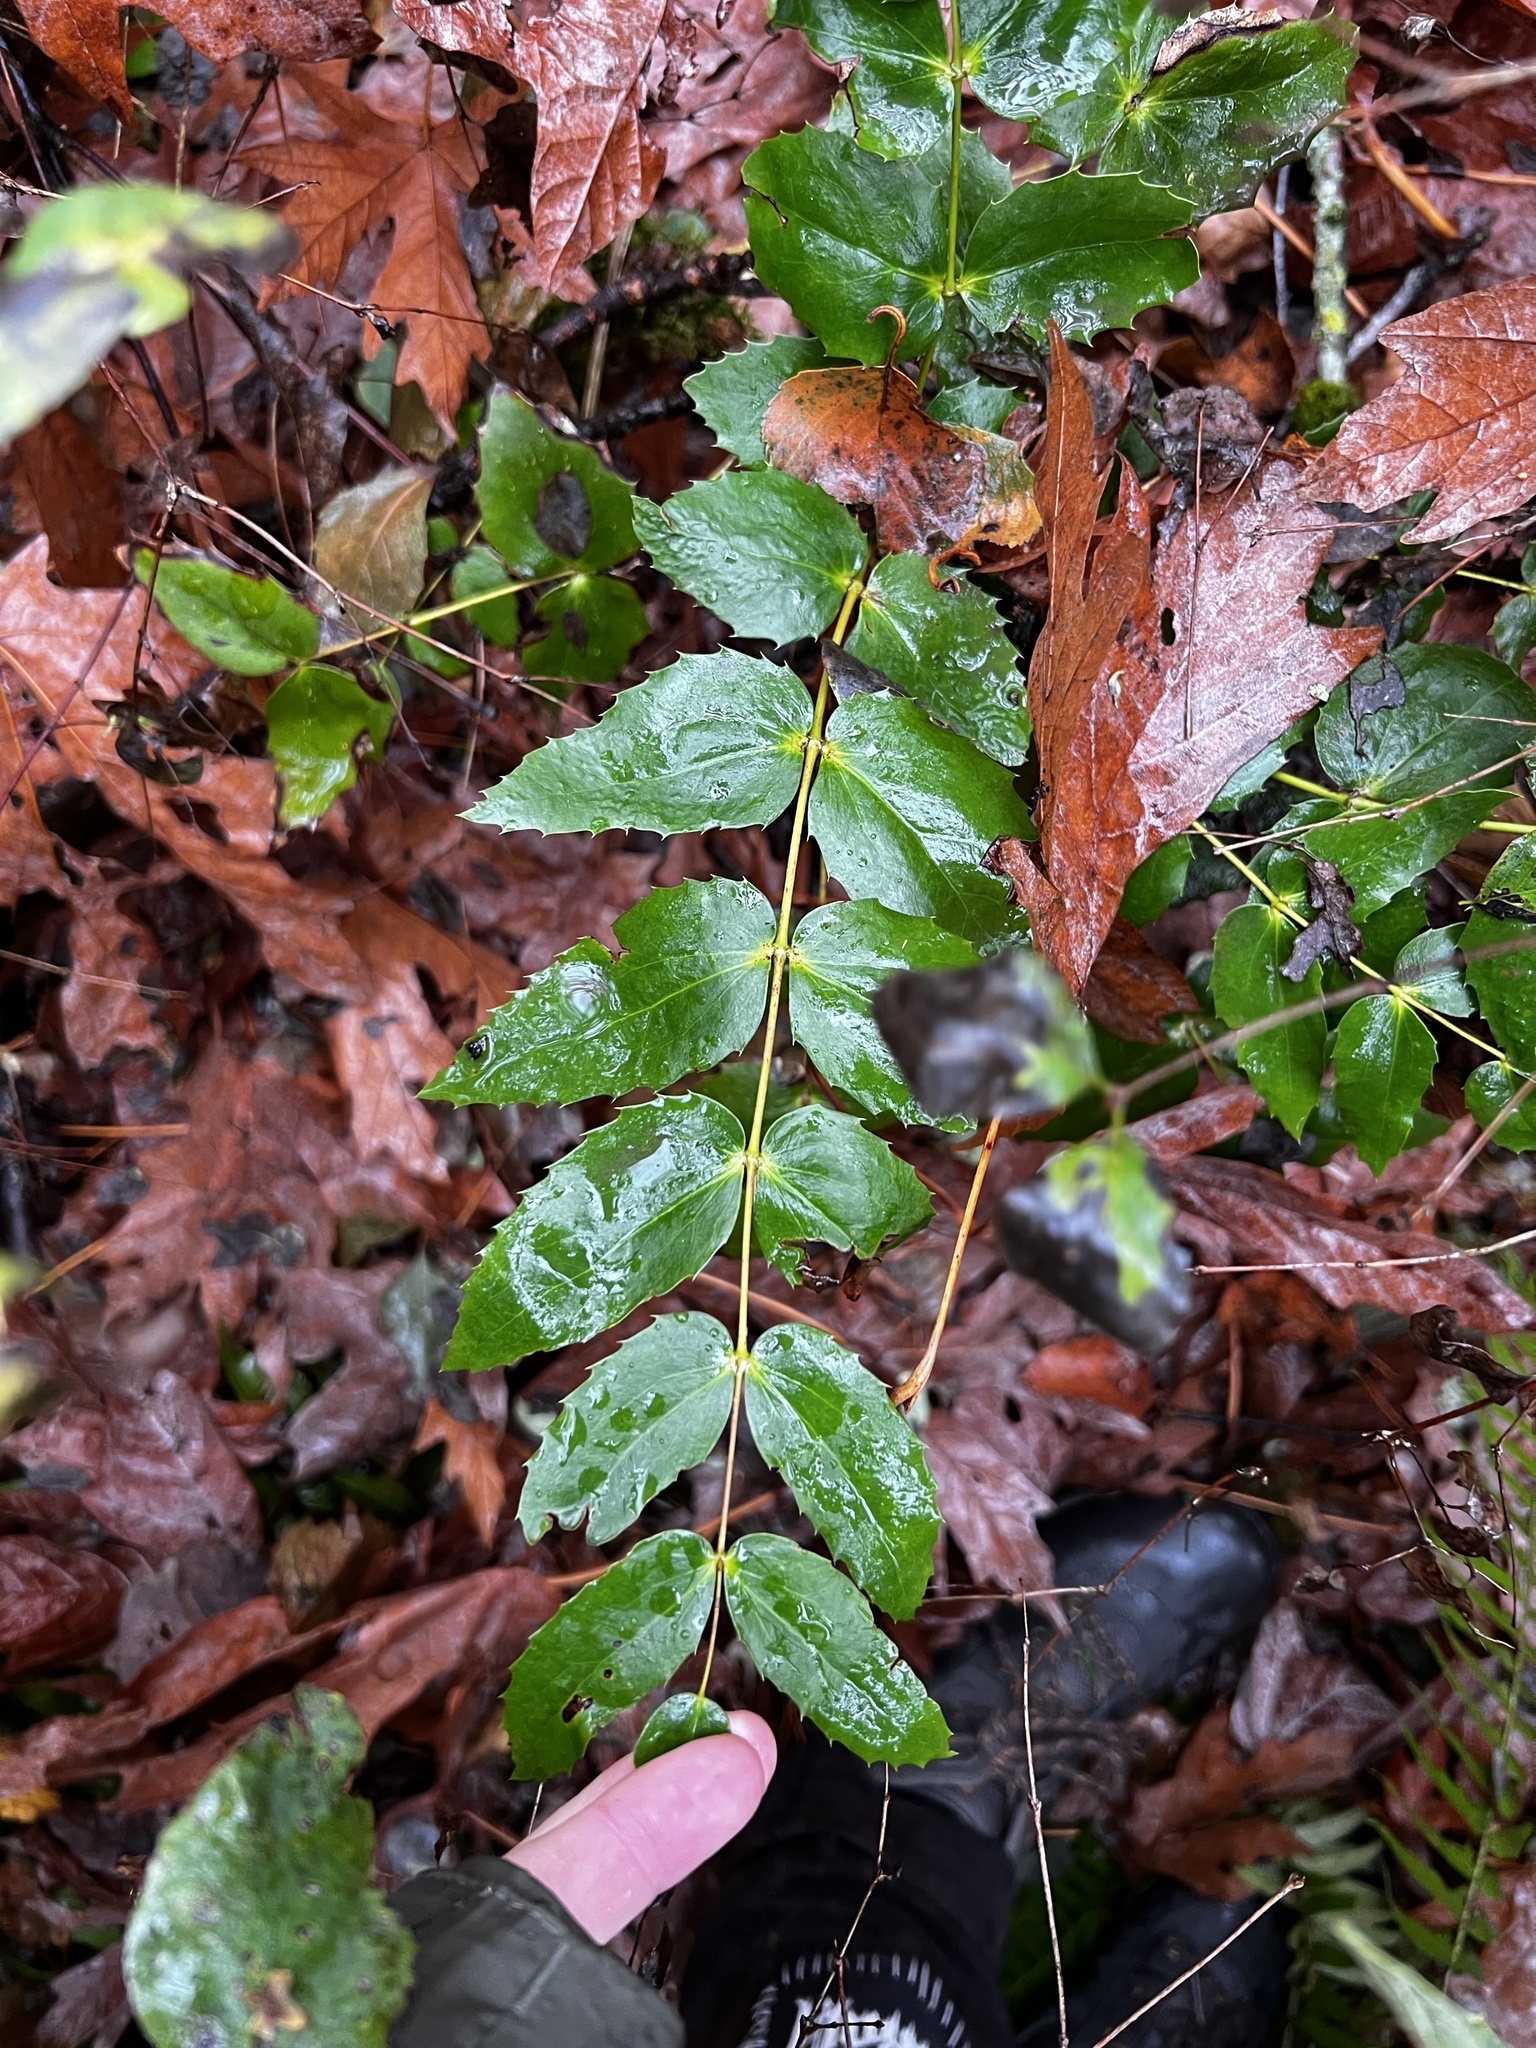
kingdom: Plantae
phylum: Tracheophyta
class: Magnoliopsida
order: Ranunculales
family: Berberidaceae
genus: Mahonia
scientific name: Mahonia nervosa
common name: Cascade oregon-grape
